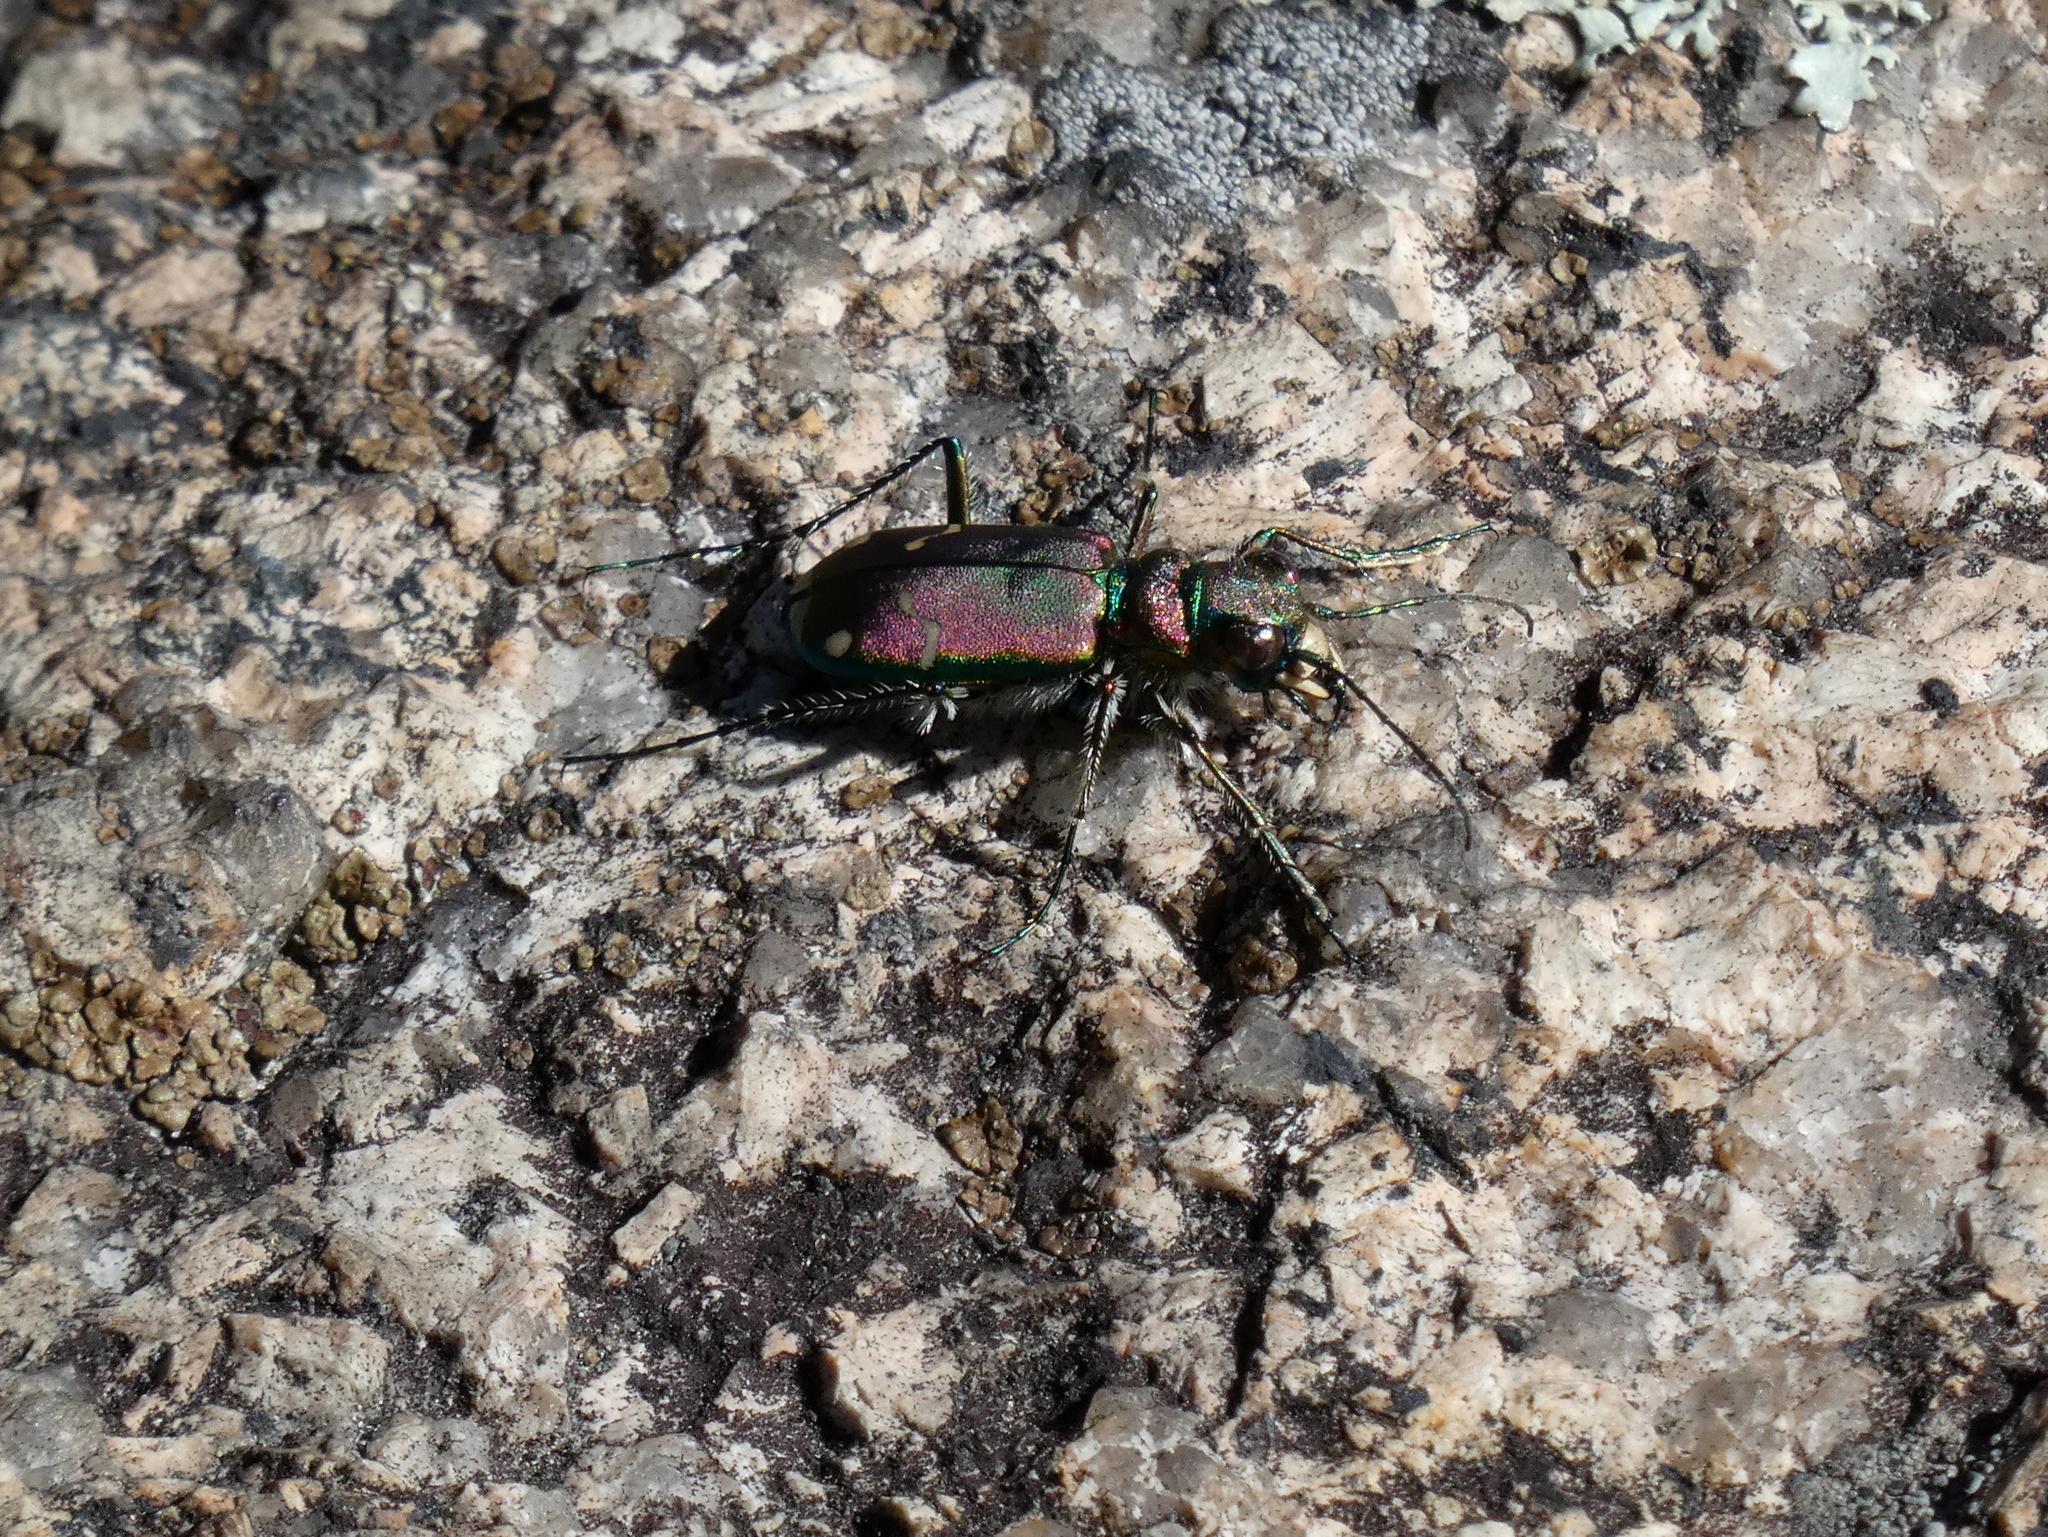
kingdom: Animalia
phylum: Arthropoda
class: Insecta
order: Coleoptera
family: Carabidae
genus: Cicindela
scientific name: Cicindela limbalis
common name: Common claybank tiger beetle
